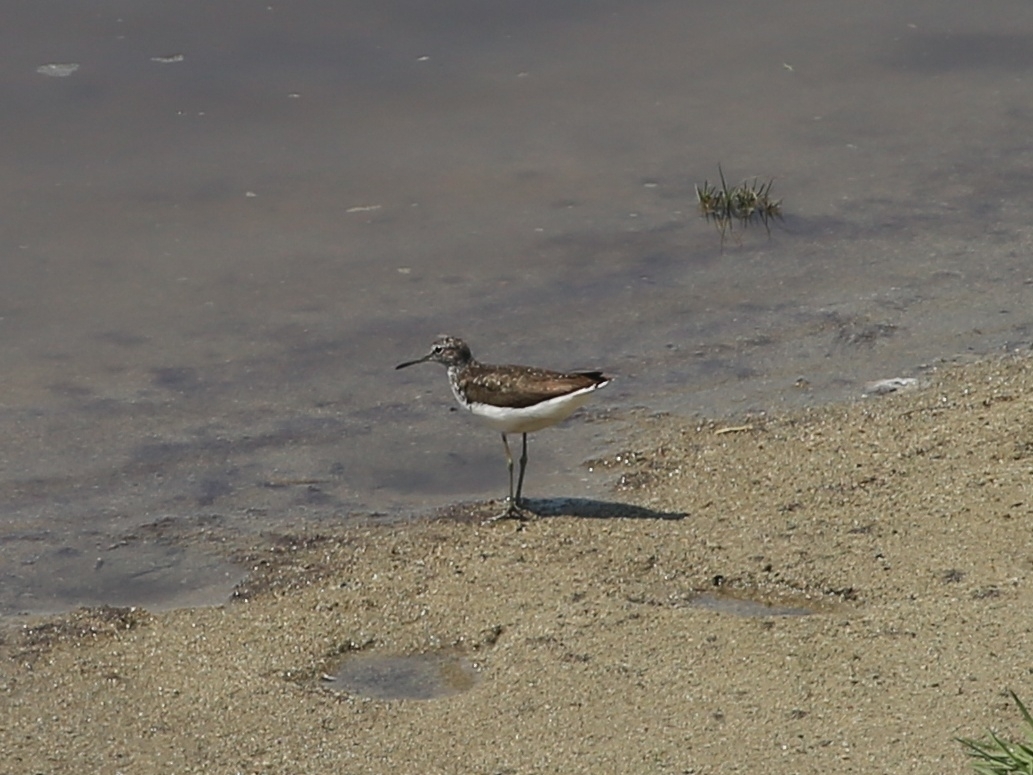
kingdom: Animalia
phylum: Chordata
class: Aves
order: Charadriiformes
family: Scolopacidae
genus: Tringa
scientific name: Tringa ochropus
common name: Green sandpiper
